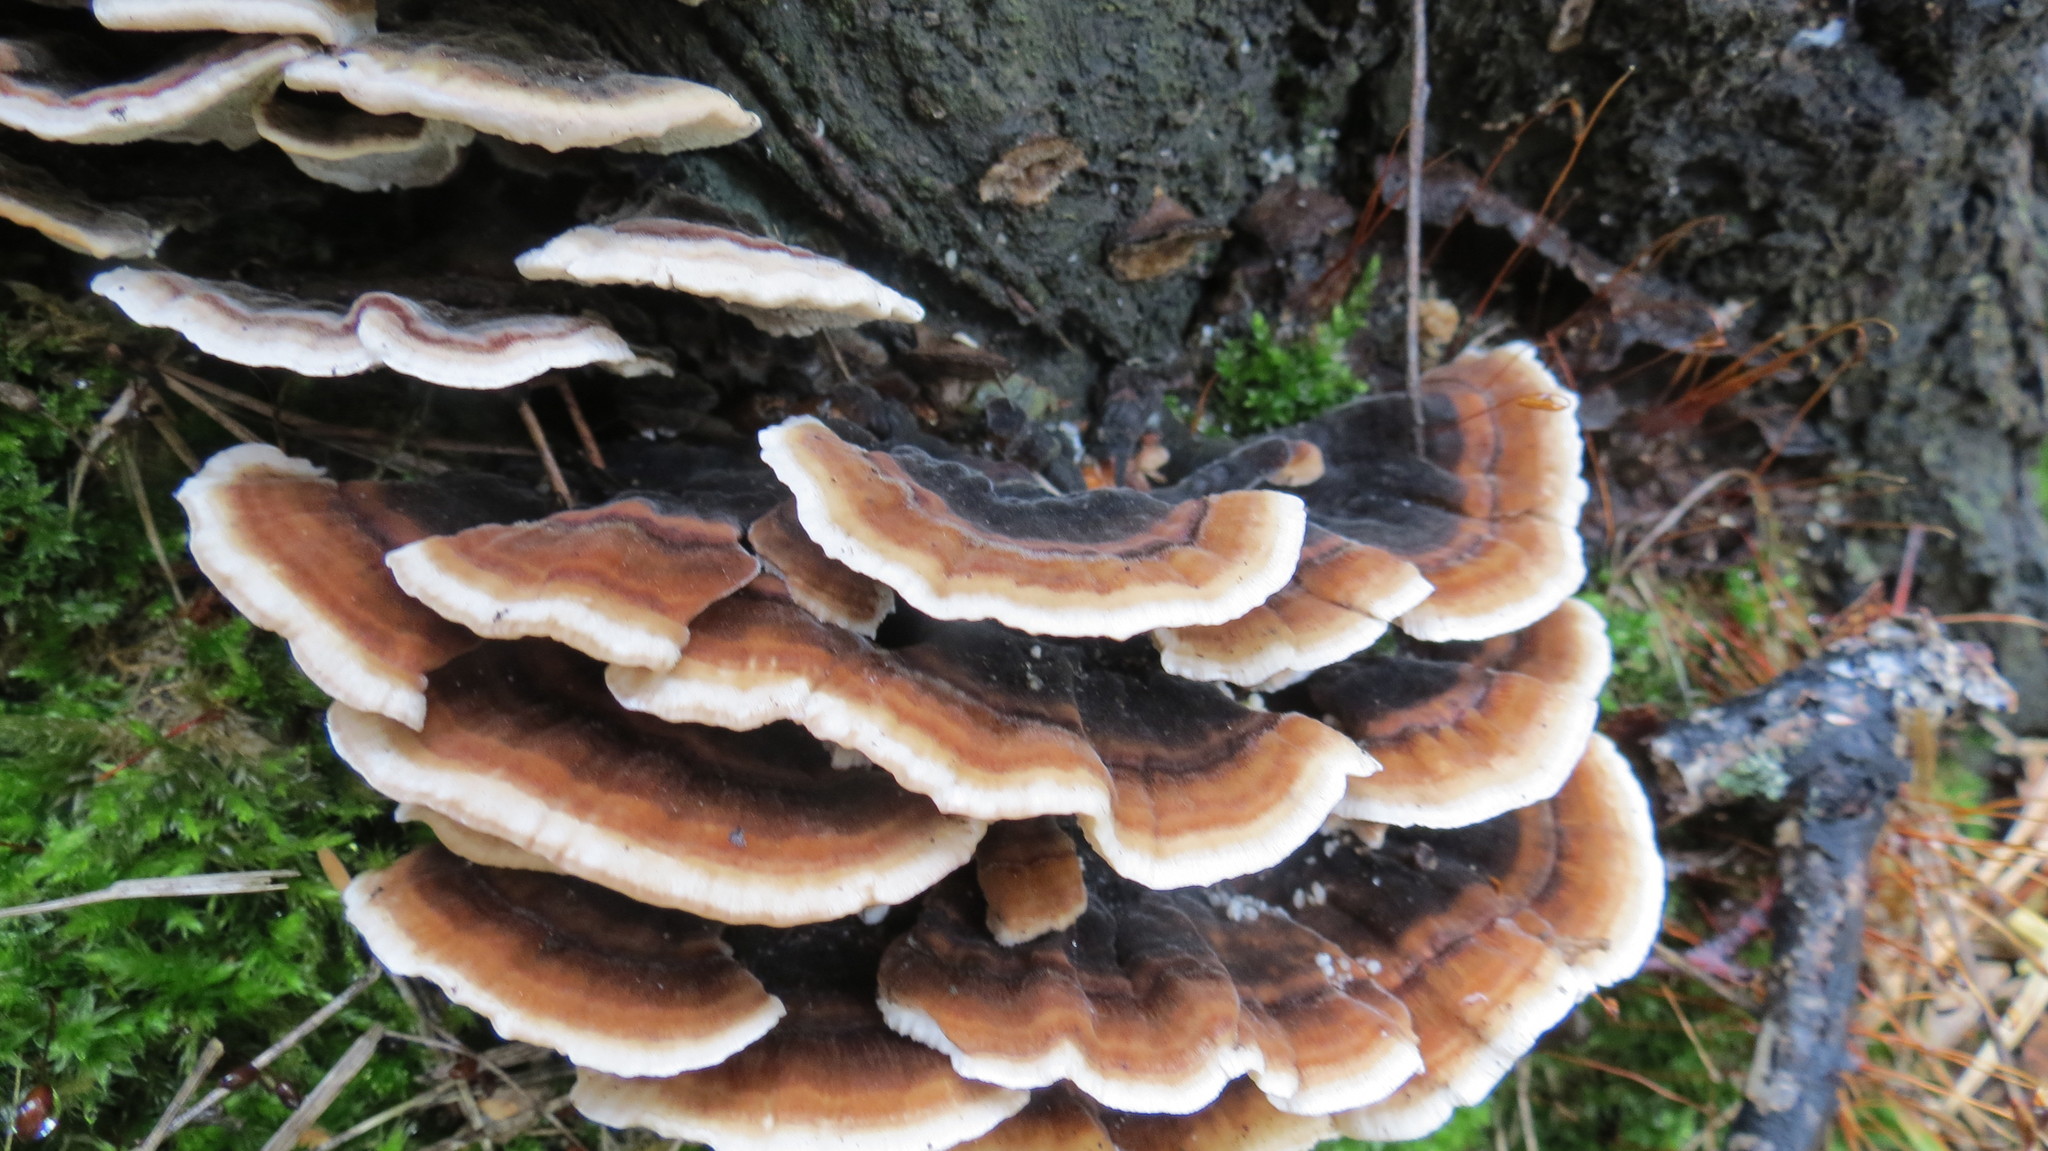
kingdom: Fungi
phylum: Basidiomycota
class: Agaricomycetes
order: Polyporales
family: Polyporaceae
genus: Trametes
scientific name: Trametes versicolor
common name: Turkeytail
